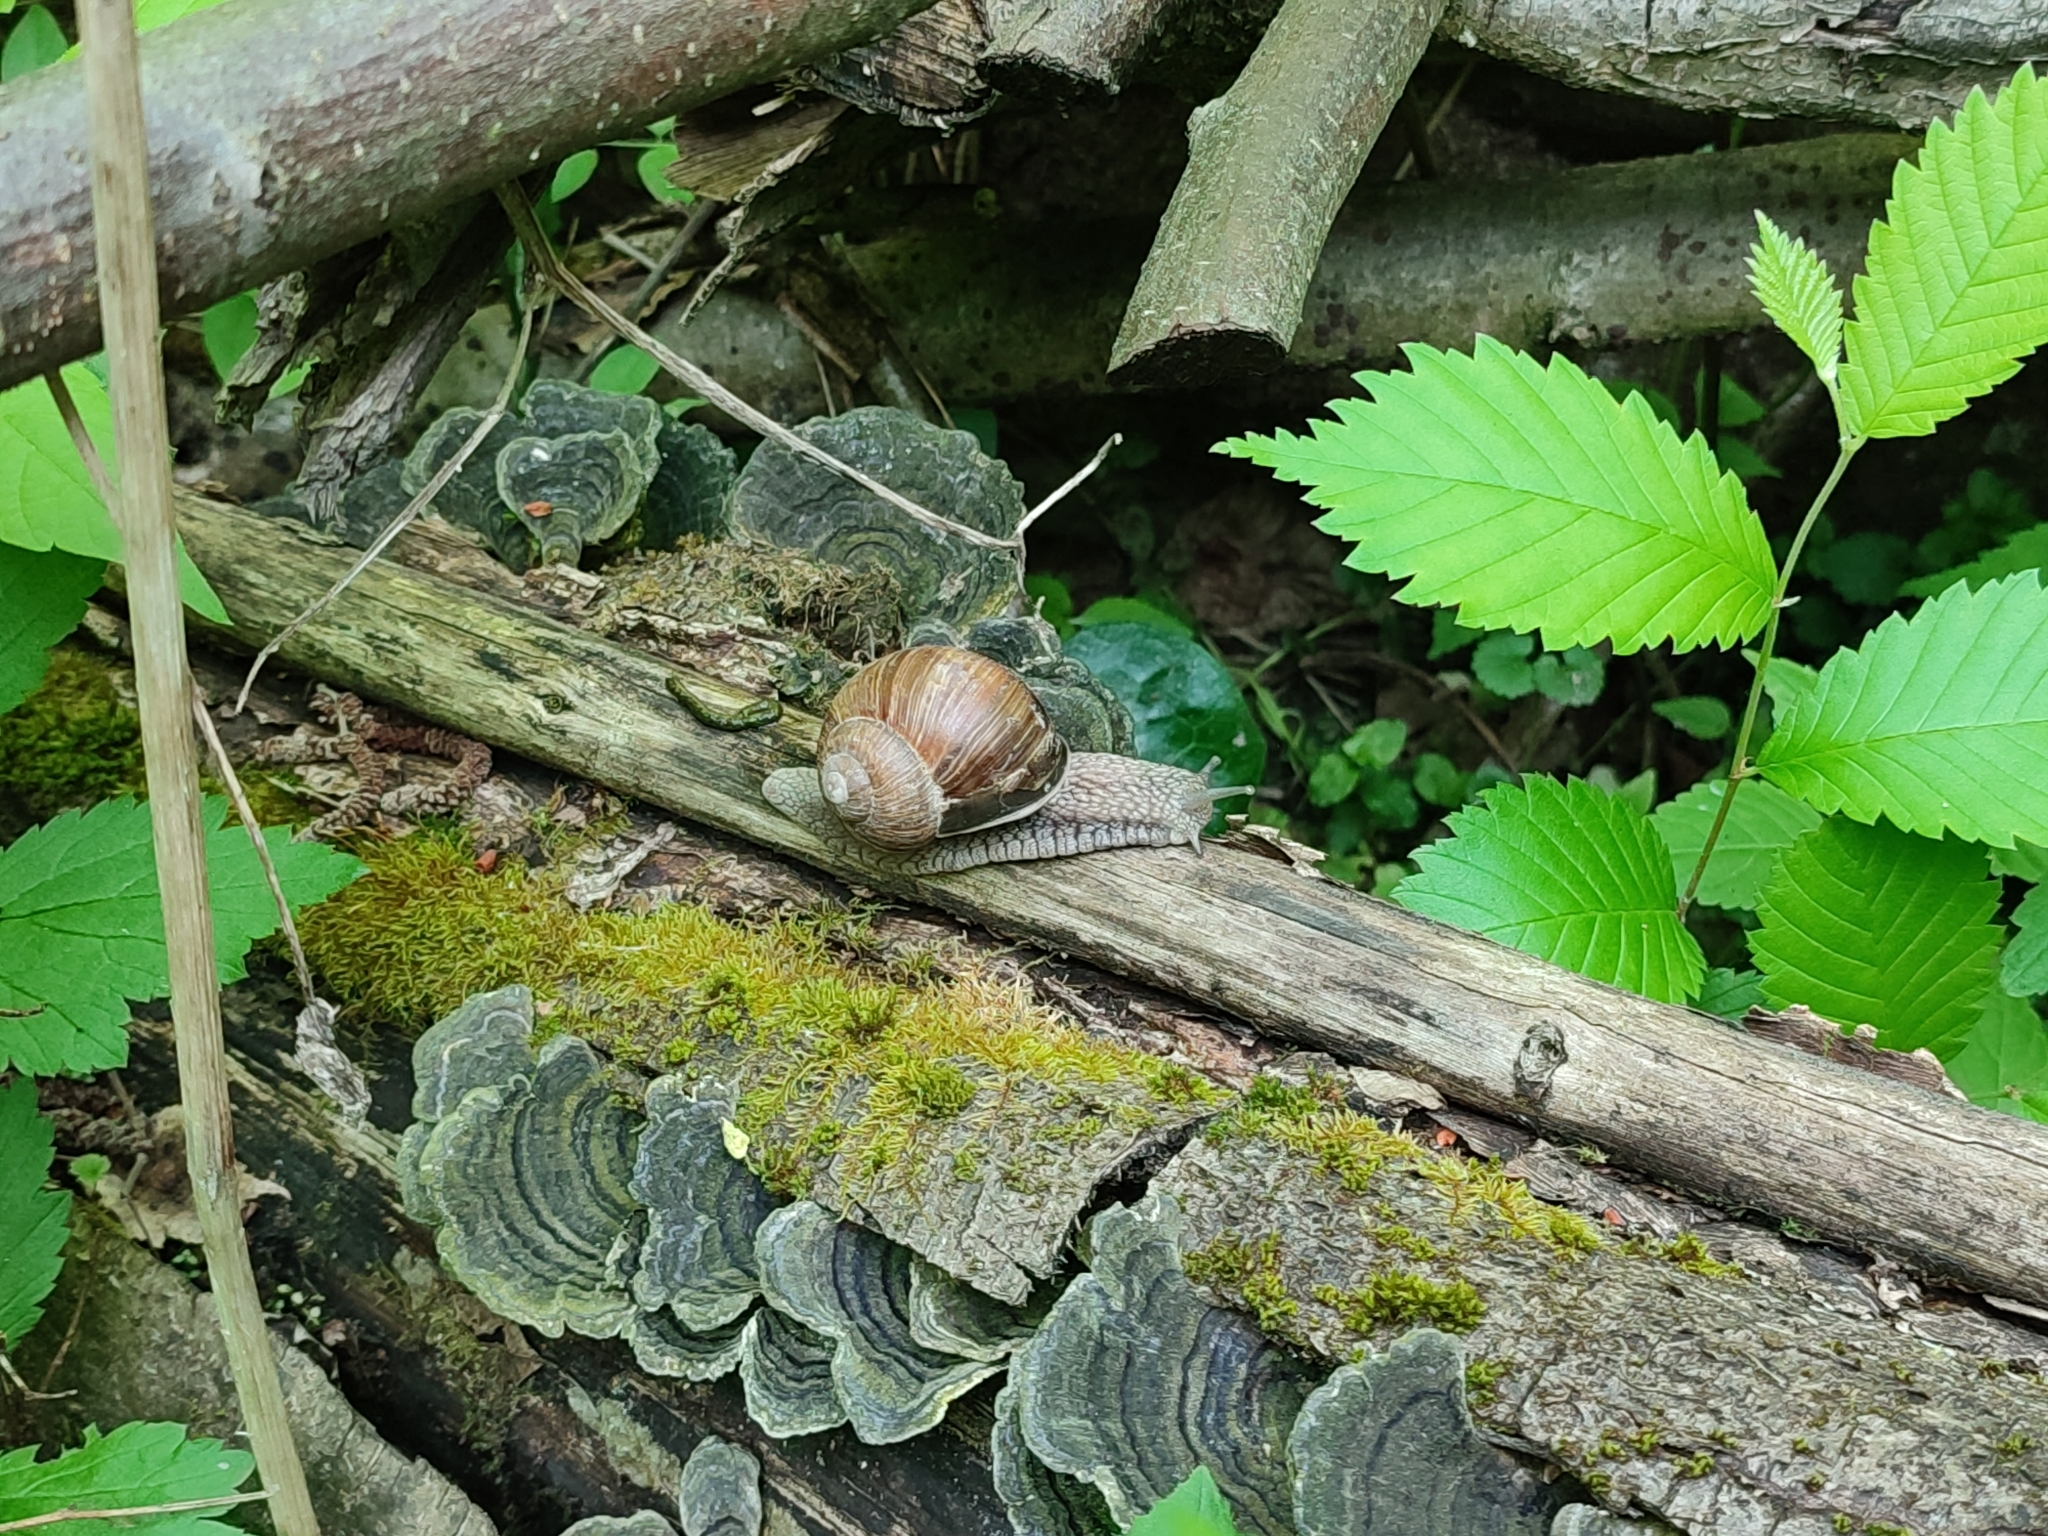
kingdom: Animalia
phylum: Mollusca
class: Gastropoda
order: Stylommatophora
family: Helicidae
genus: Helix
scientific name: Helix pomatia
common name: Roman snail
